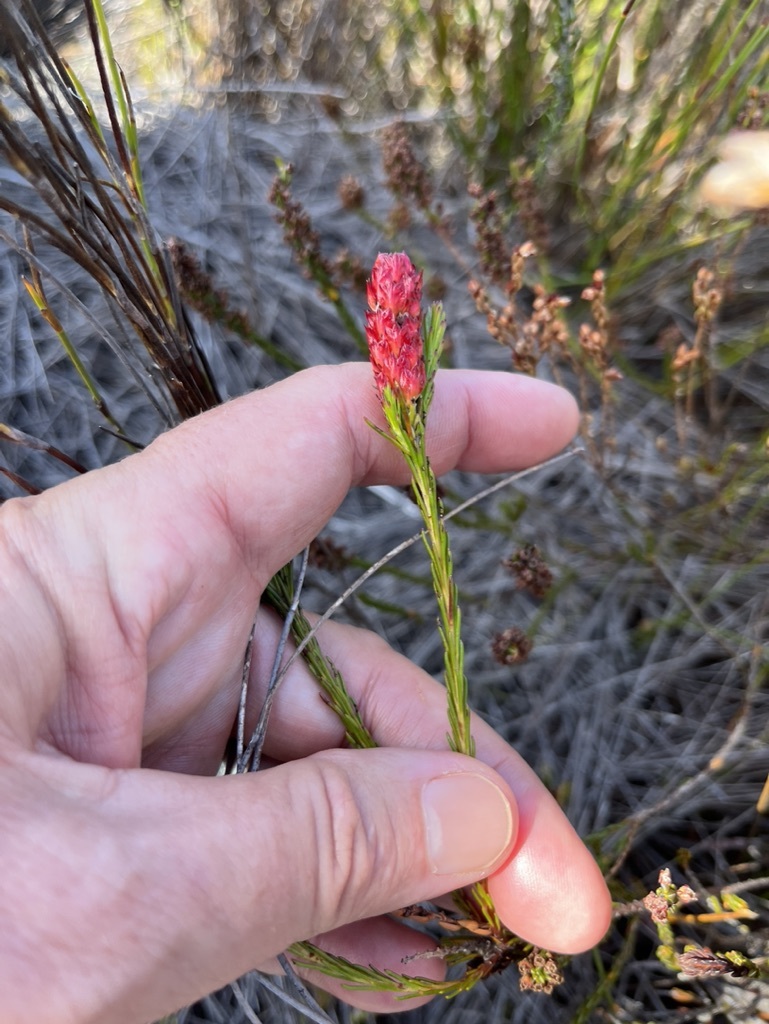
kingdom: Plantae
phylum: Tracheophyta
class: Magnoliopsida
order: Proteales
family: Proteaceae
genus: Spatalla
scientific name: Spatalla squamata
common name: Silky spoon
